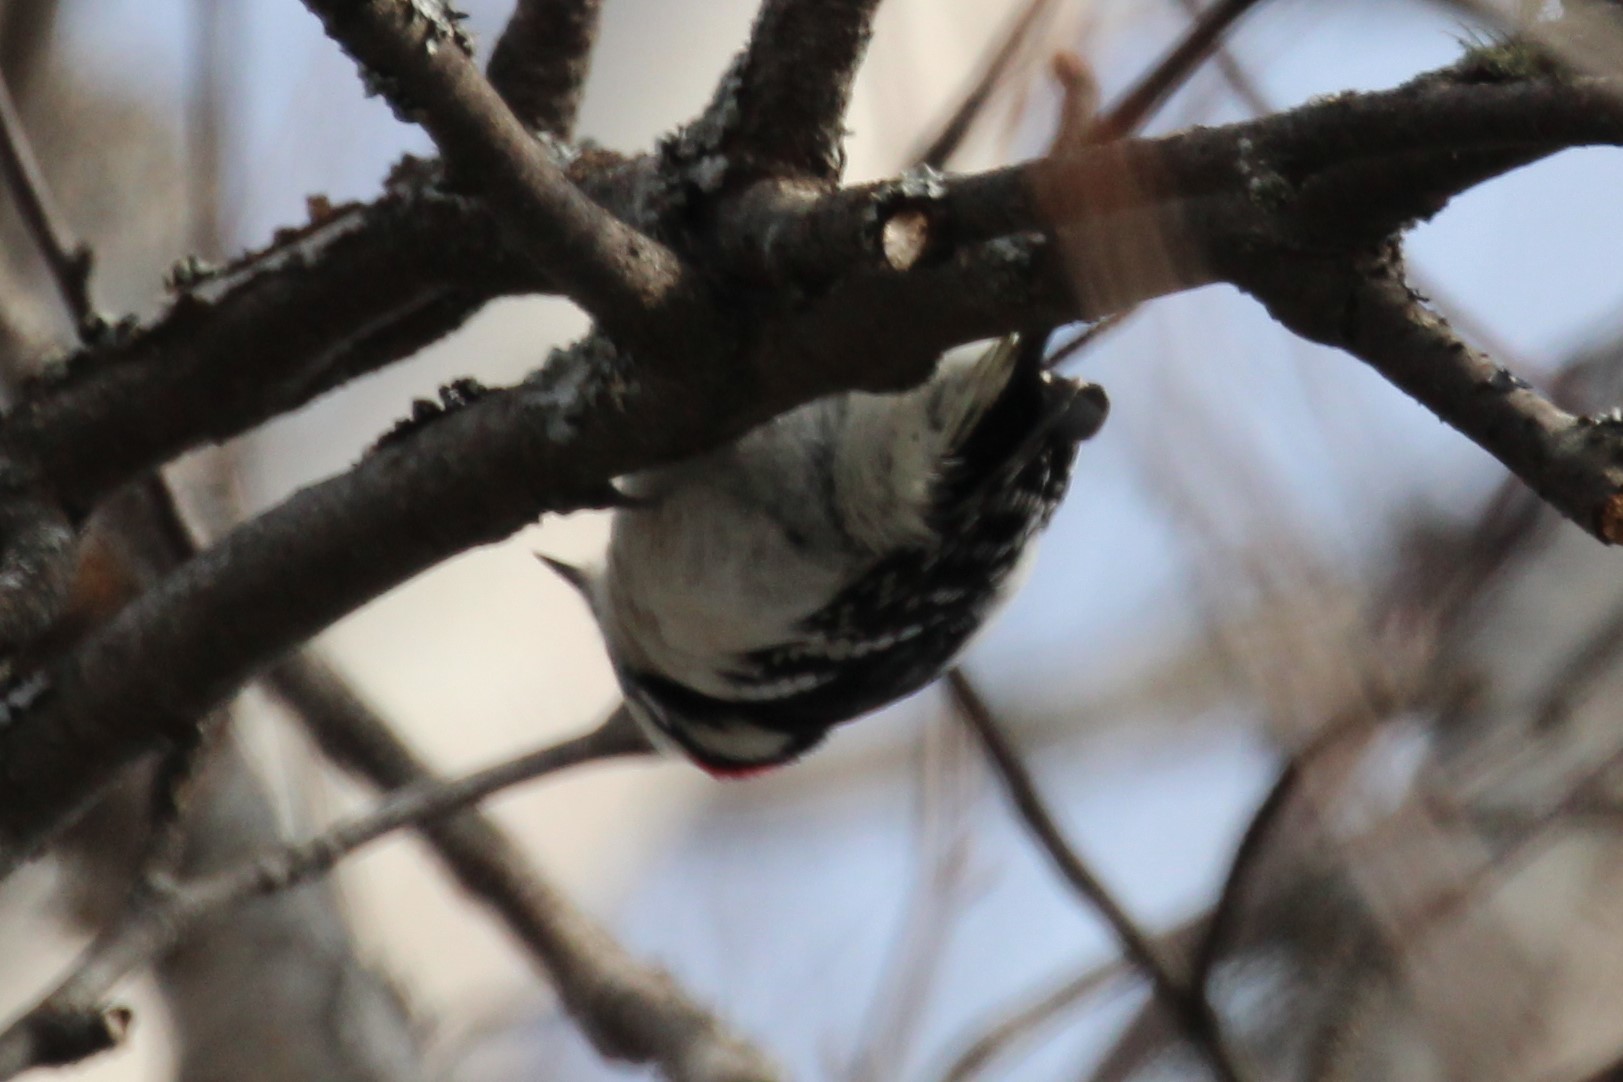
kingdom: Animalia
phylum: Chordata
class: Aves
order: Piciformes
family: Picidae
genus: Dryobates
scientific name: Dryobates pubescens
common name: Downy woodpecker
